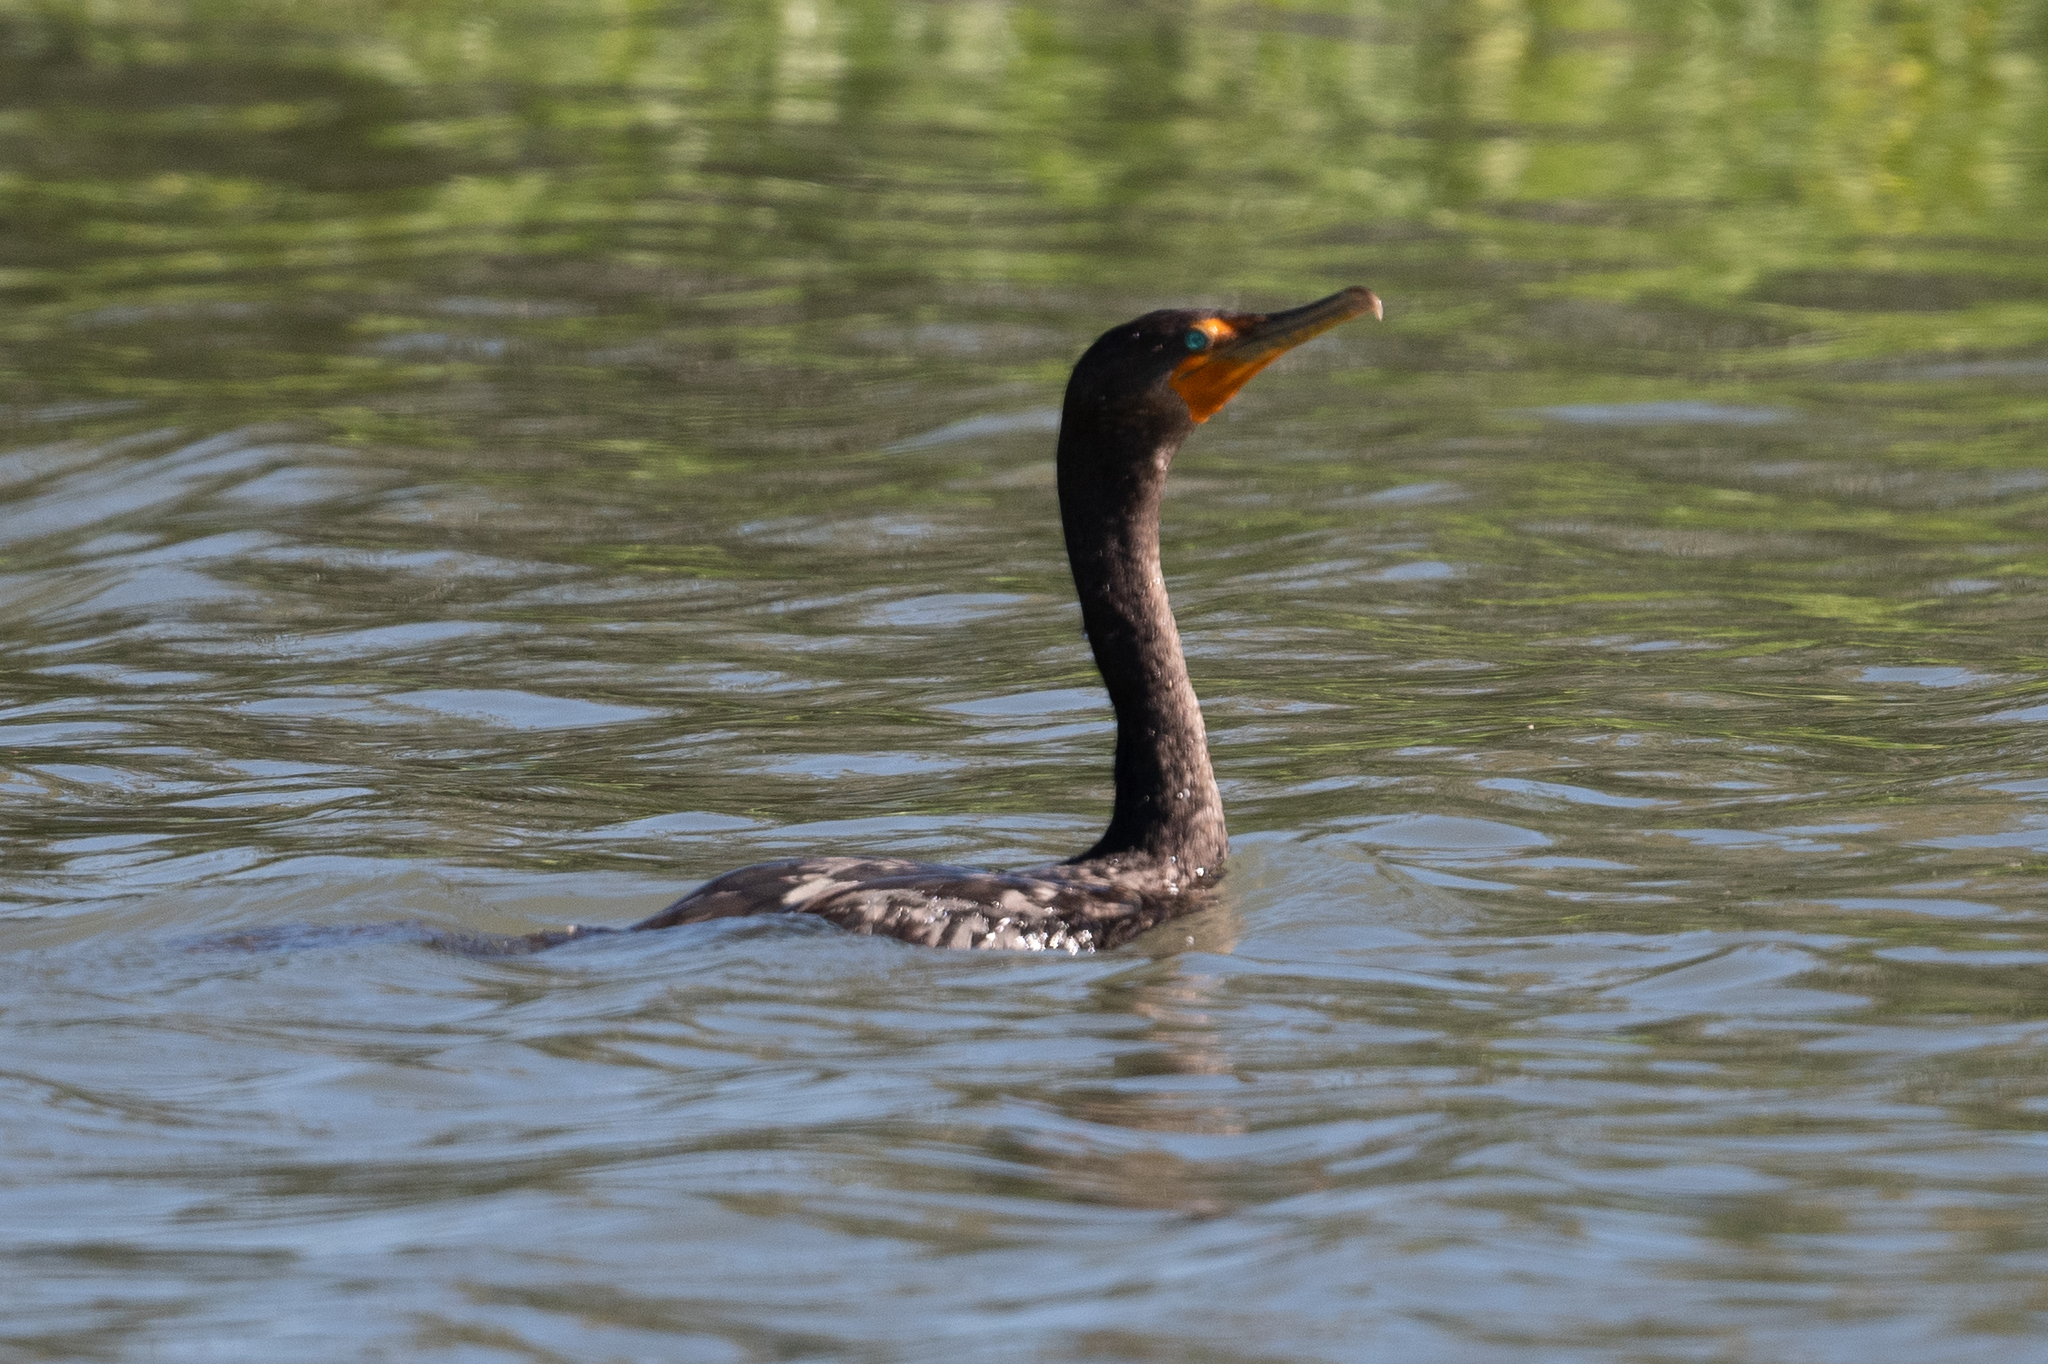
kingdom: Animalia
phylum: Chordata
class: Aves
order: Suliformes
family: Phalacrocoracidae
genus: Phalacrocorax
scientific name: Phalacrocorax auritus
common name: Double-crested cormorant
